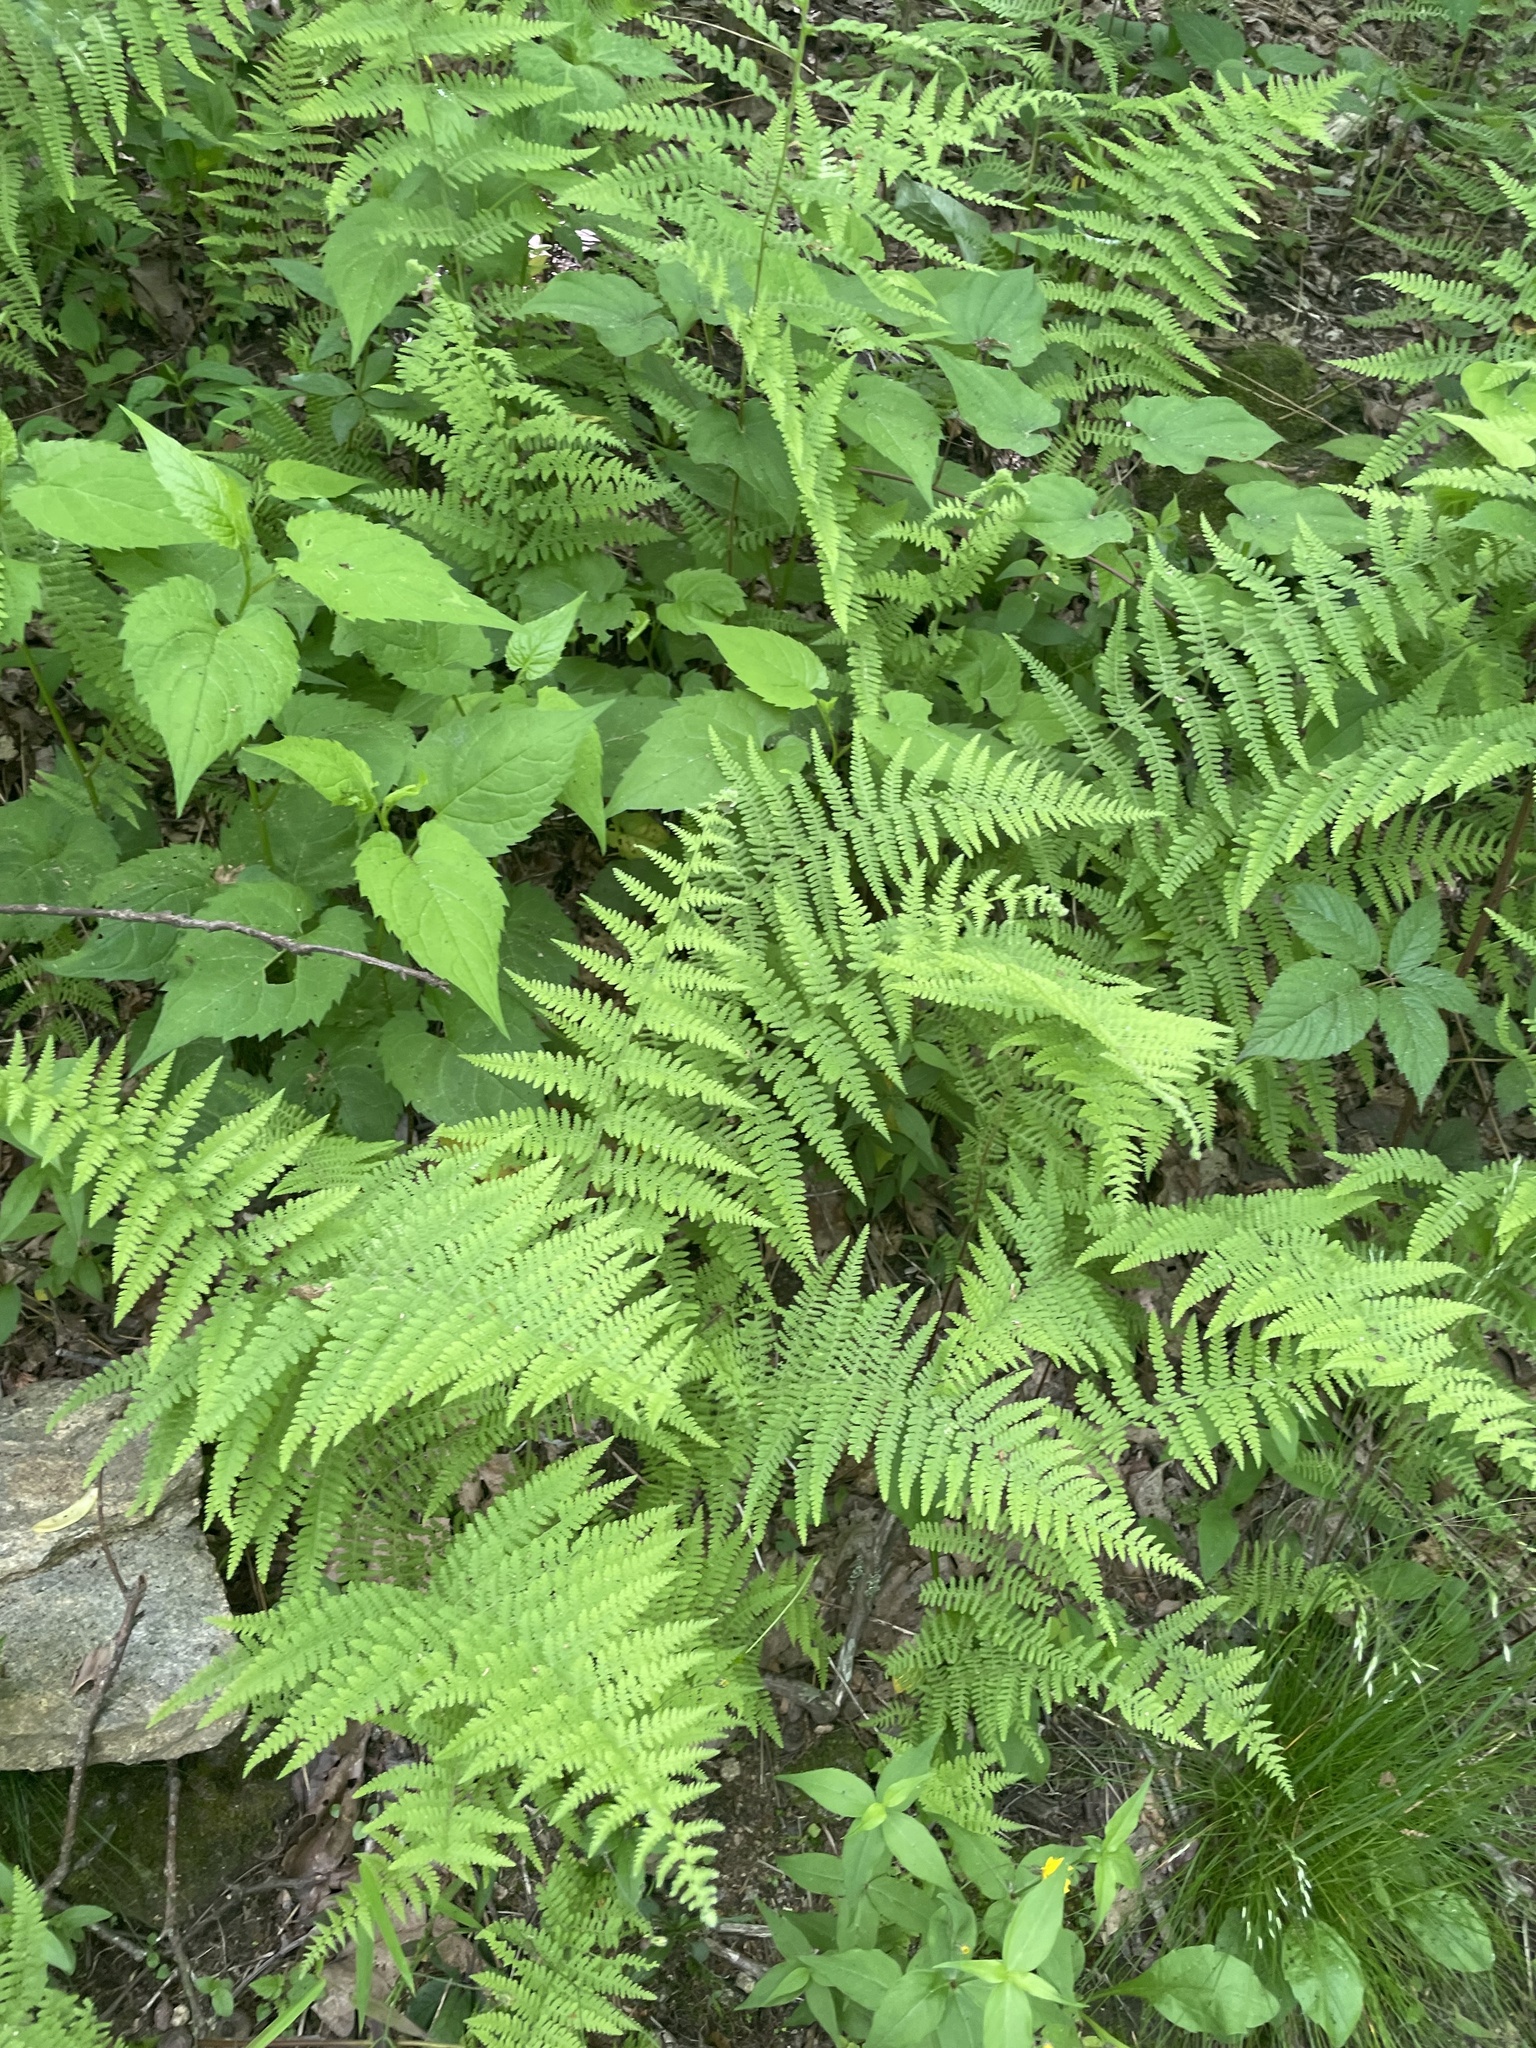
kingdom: Plantae
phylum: Tracheophyta
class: Polypodiopsida
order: Polypodiales
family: Dennstaedtiaceae
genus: Sitobolium
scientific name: Sitobolium punctilobum
